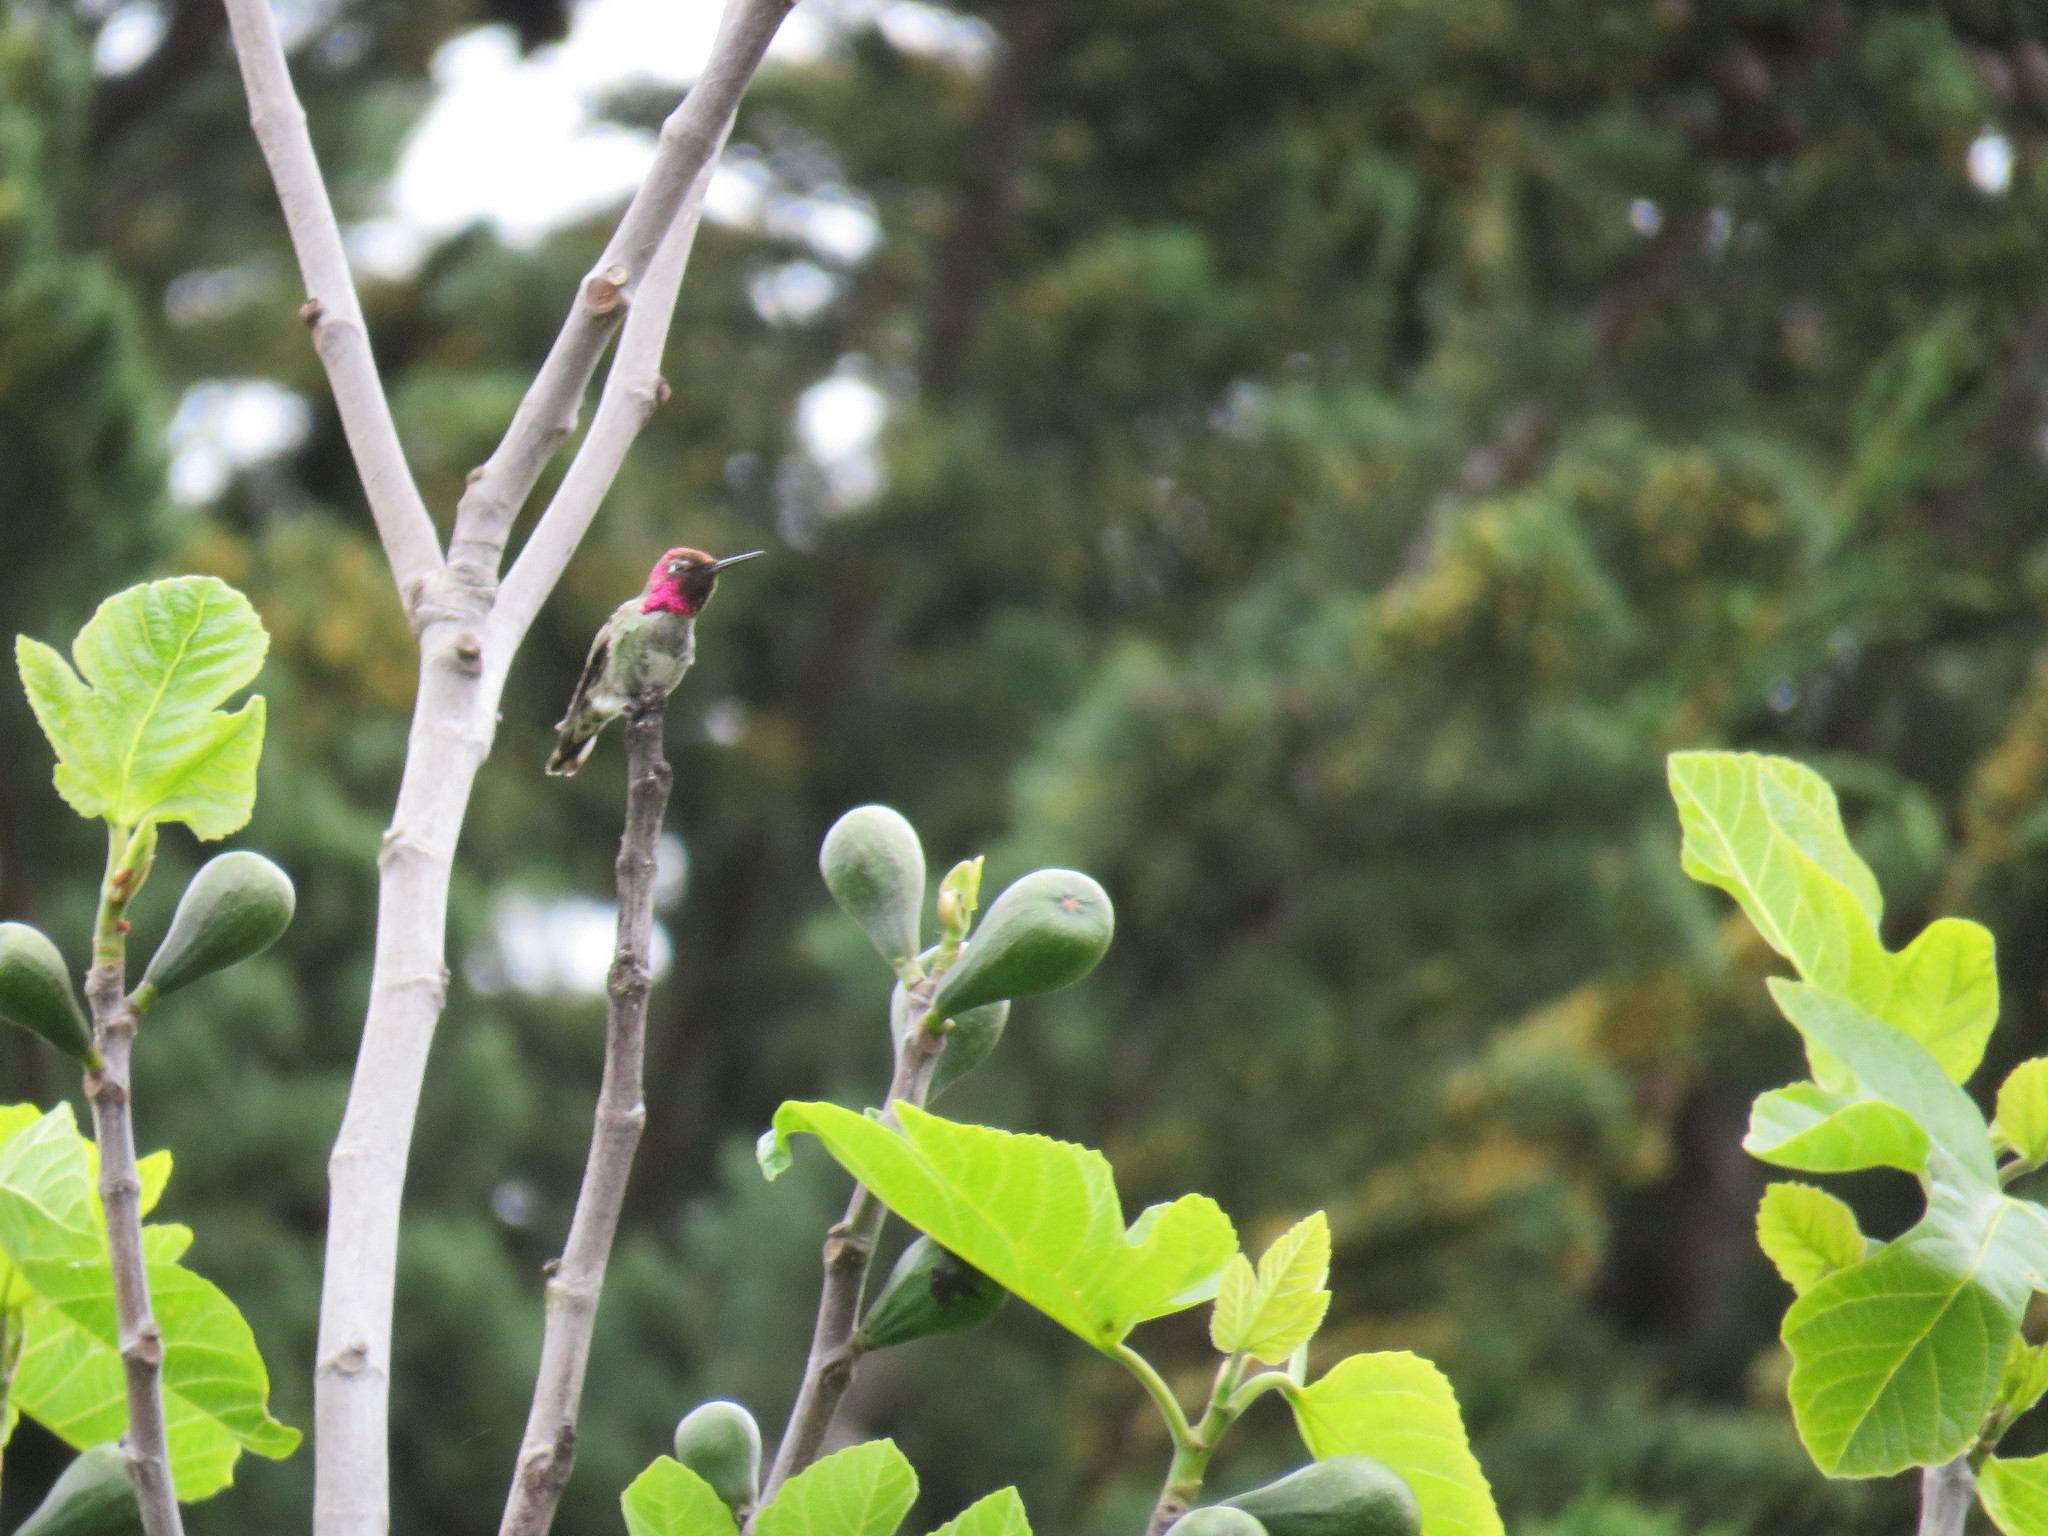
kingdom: Animalia
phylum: Chordata
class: Aves
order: Apodiformes
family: Trochilidae
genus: Calypte
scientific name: Calypte anna
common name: Anna's hummingbird
